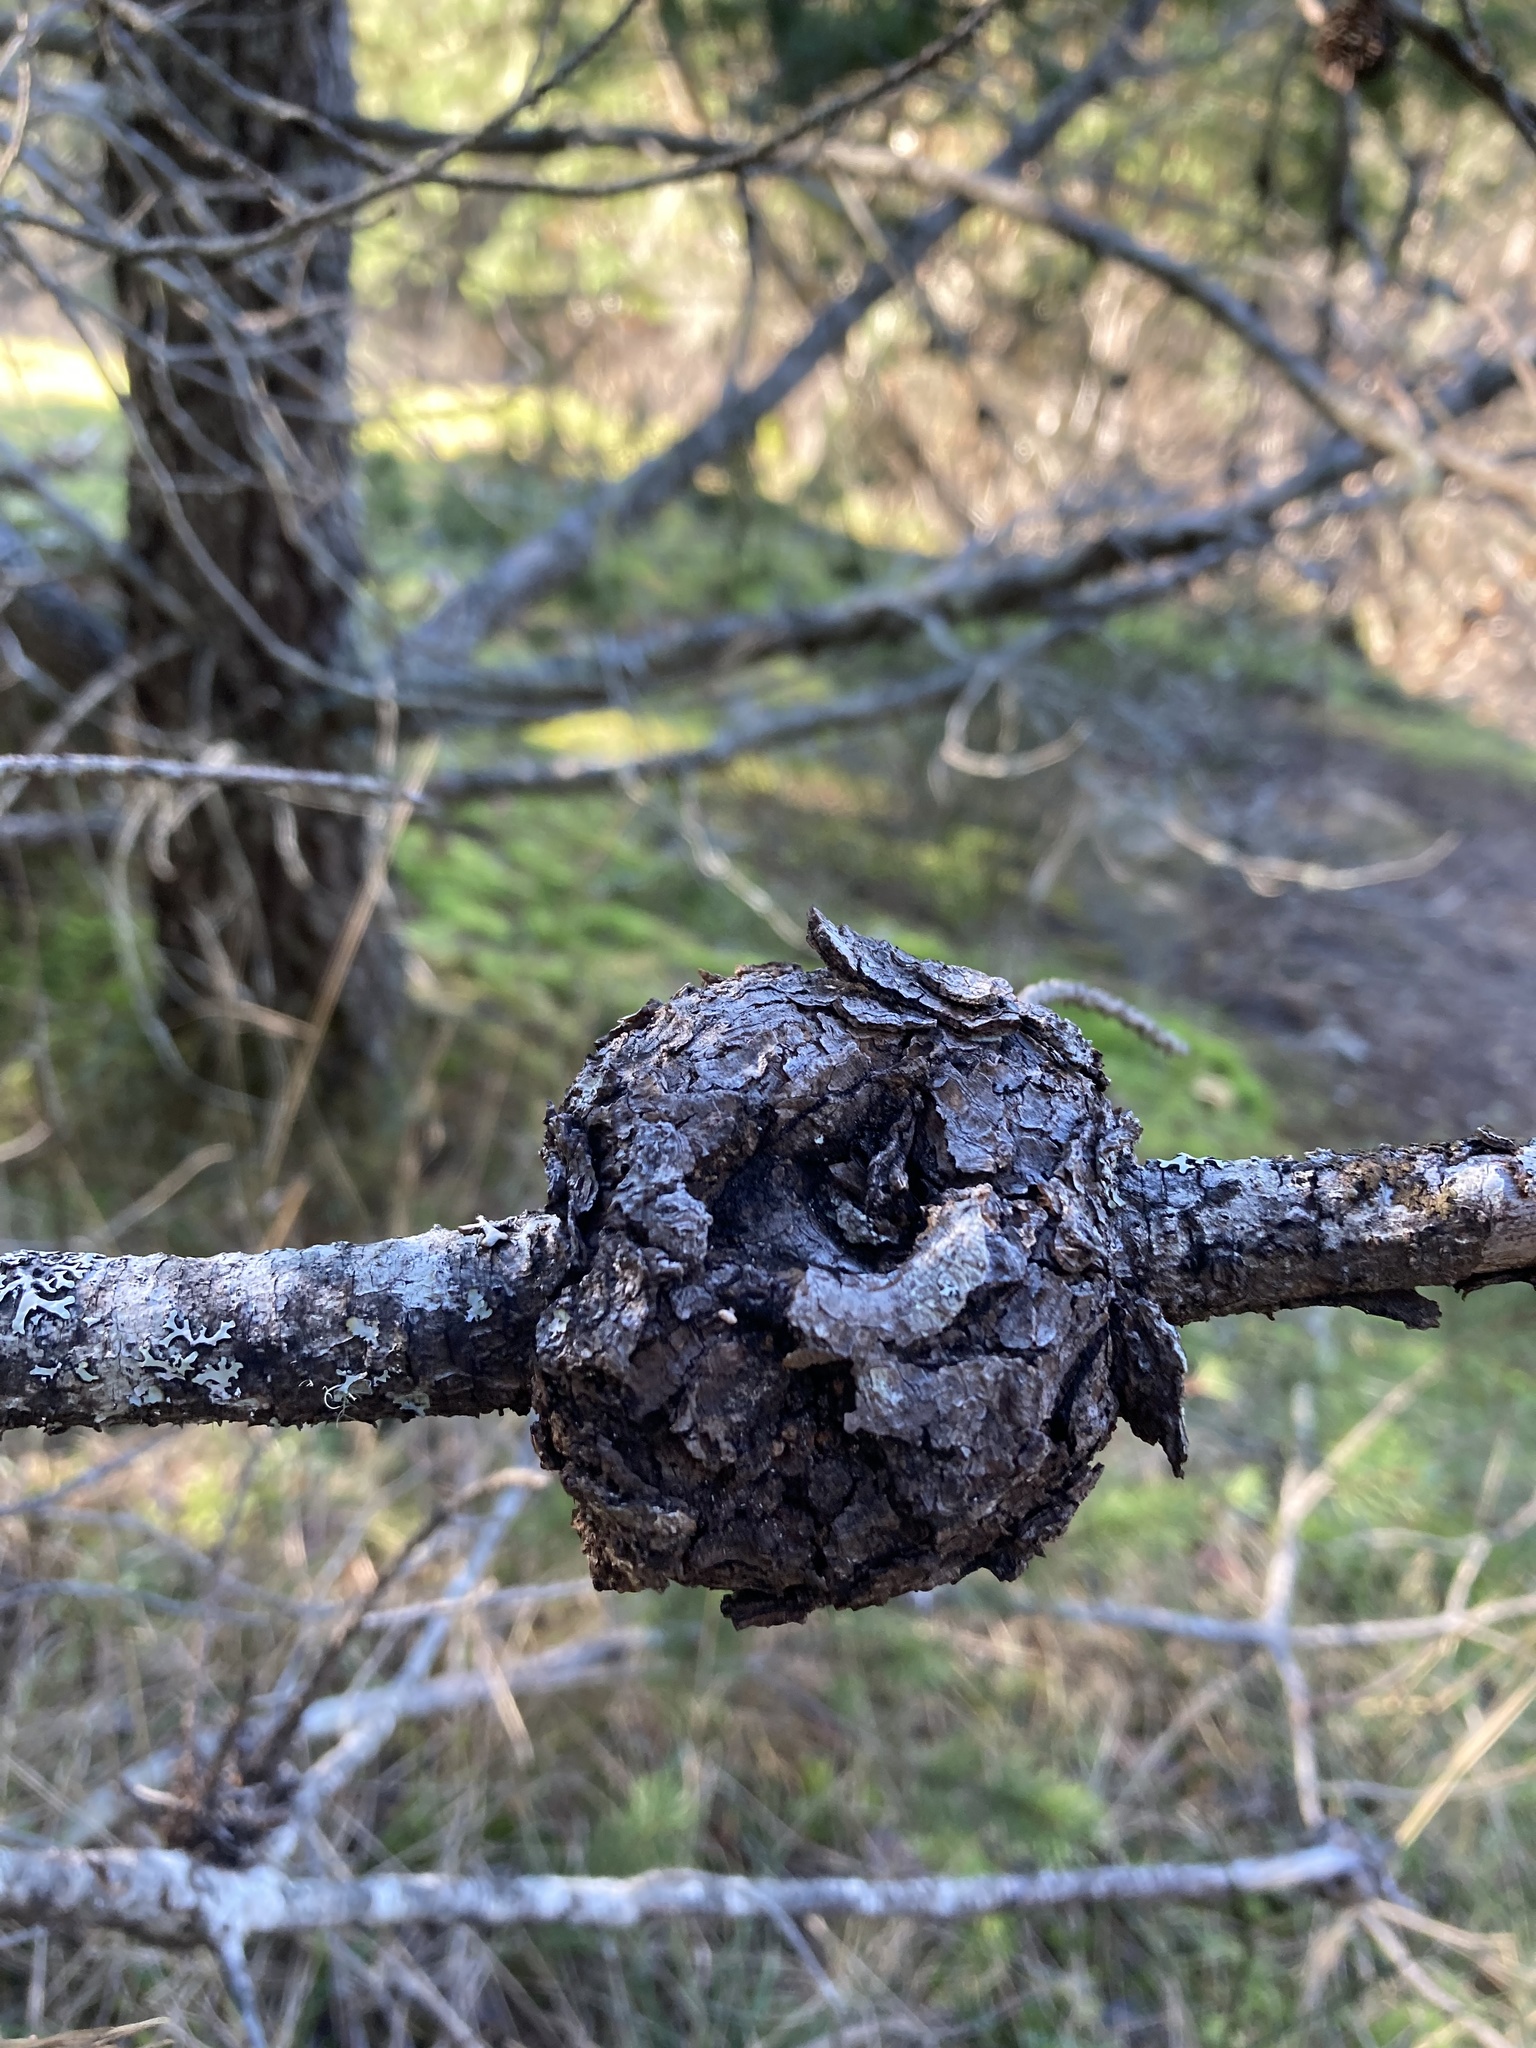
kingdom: Fungi
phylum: Basidiomycota
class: Pucciniomycetes
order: Pucciniales
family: Cronartiaceae
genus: Cronartium
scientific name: Cronartium harknessii
